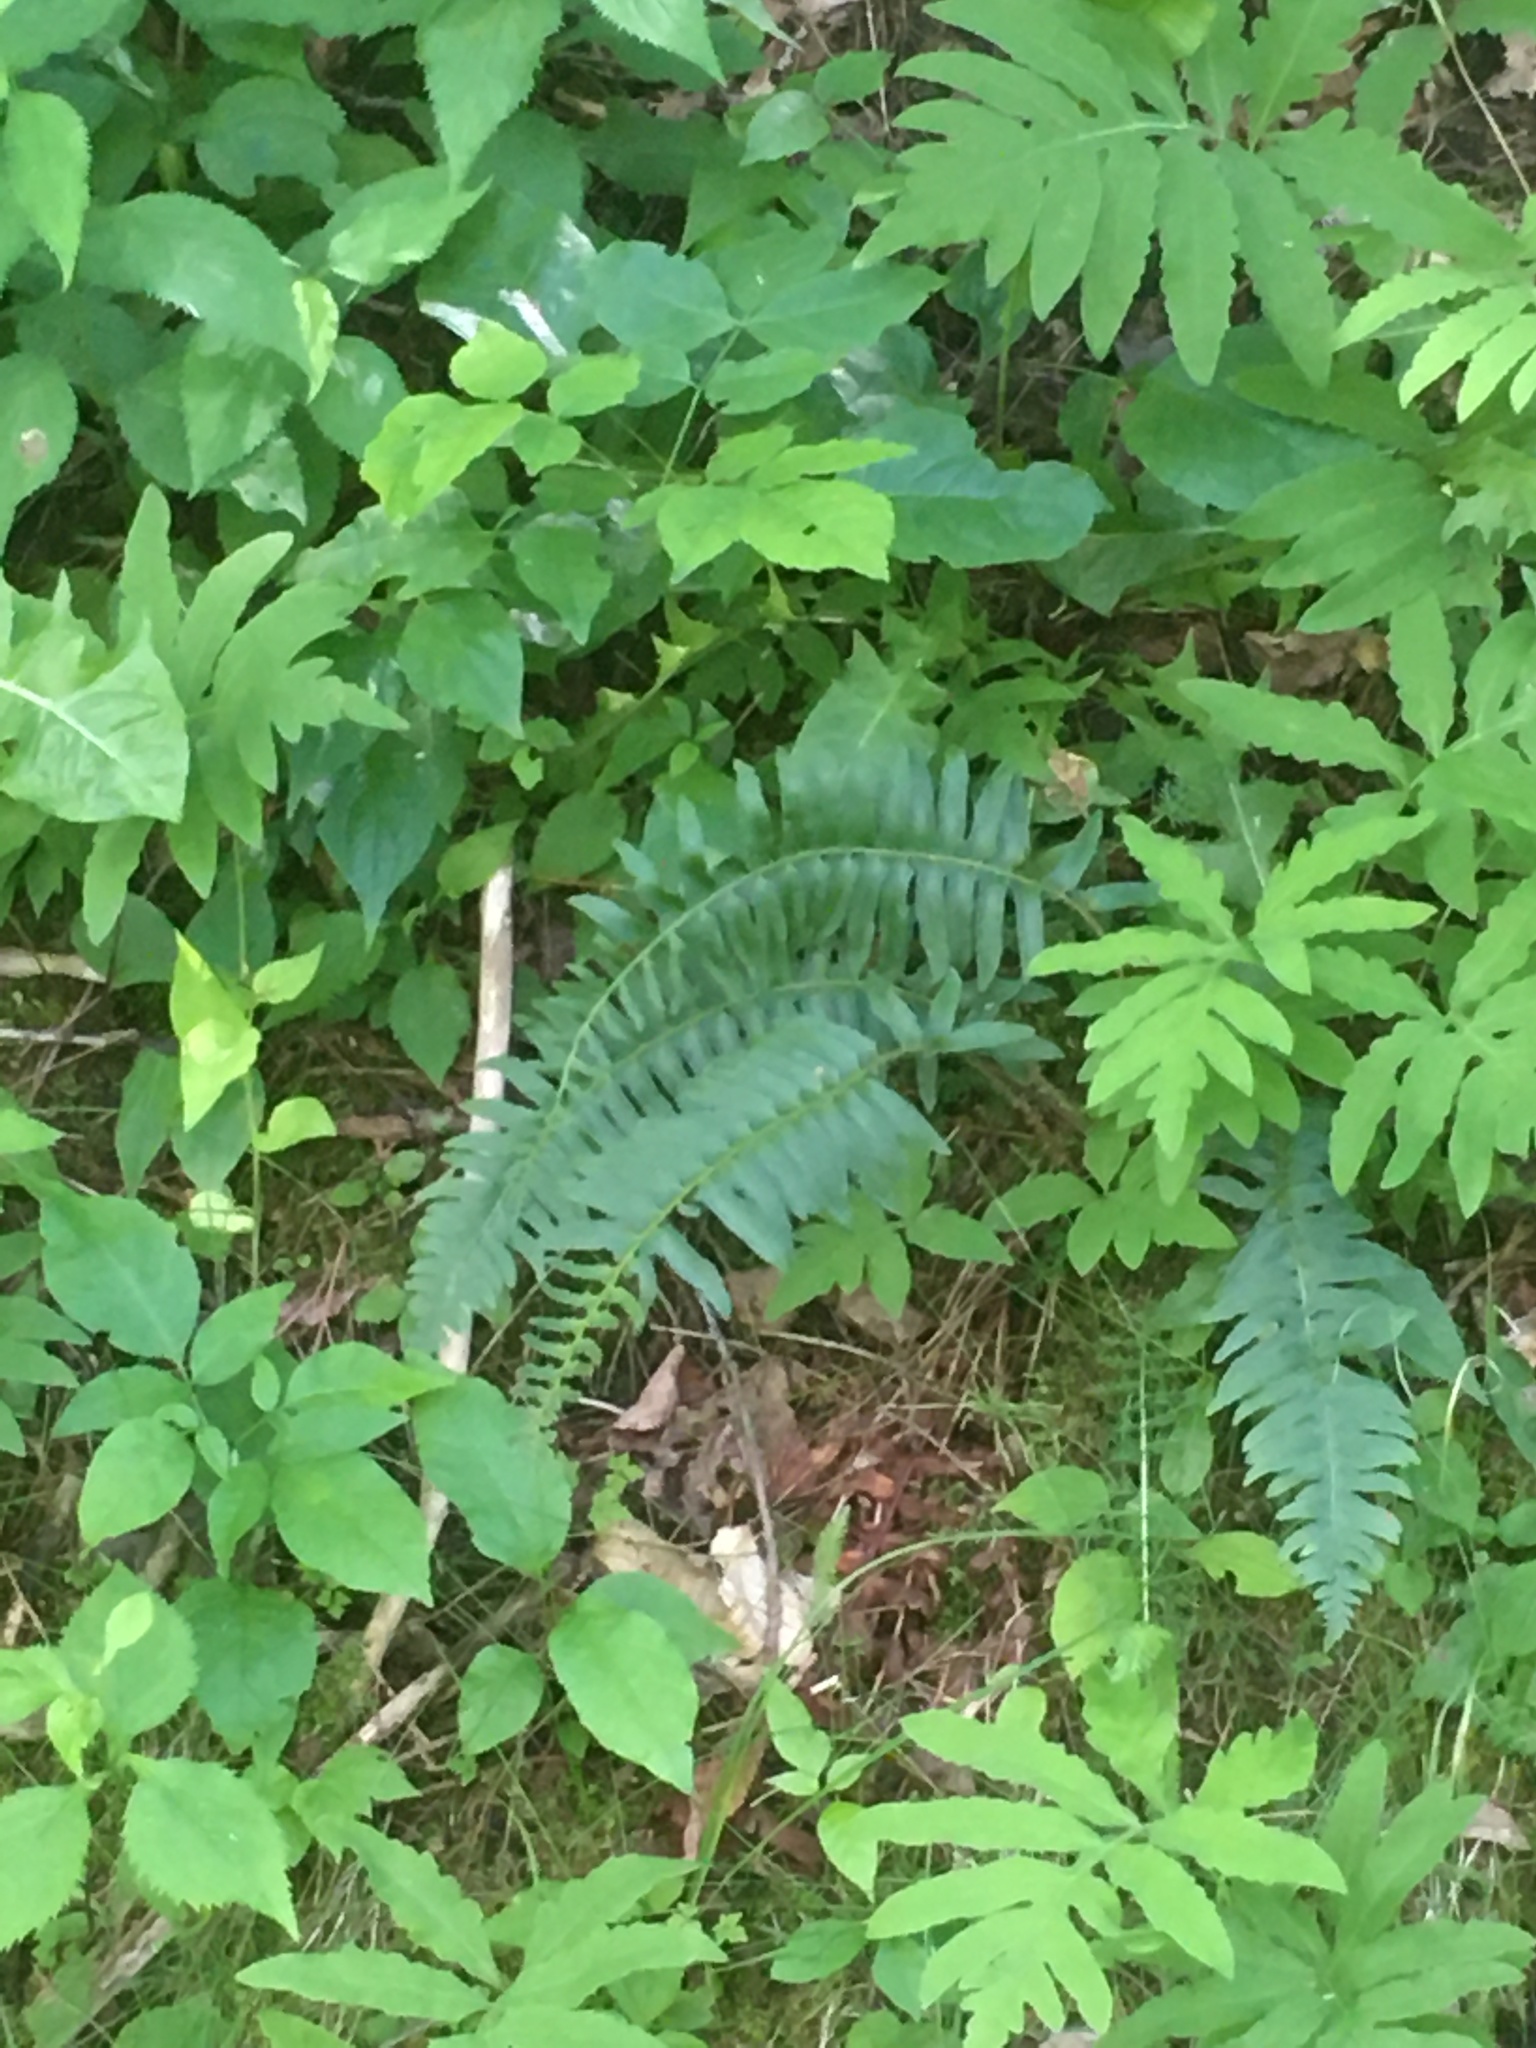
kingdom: Plantae
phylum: Tracheophyta
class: Polypodiopsida
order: Polypodiales
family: Dryopteridaceae
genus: Polystichum
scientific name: Polystichum acrostichoides
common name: Christmas fern
